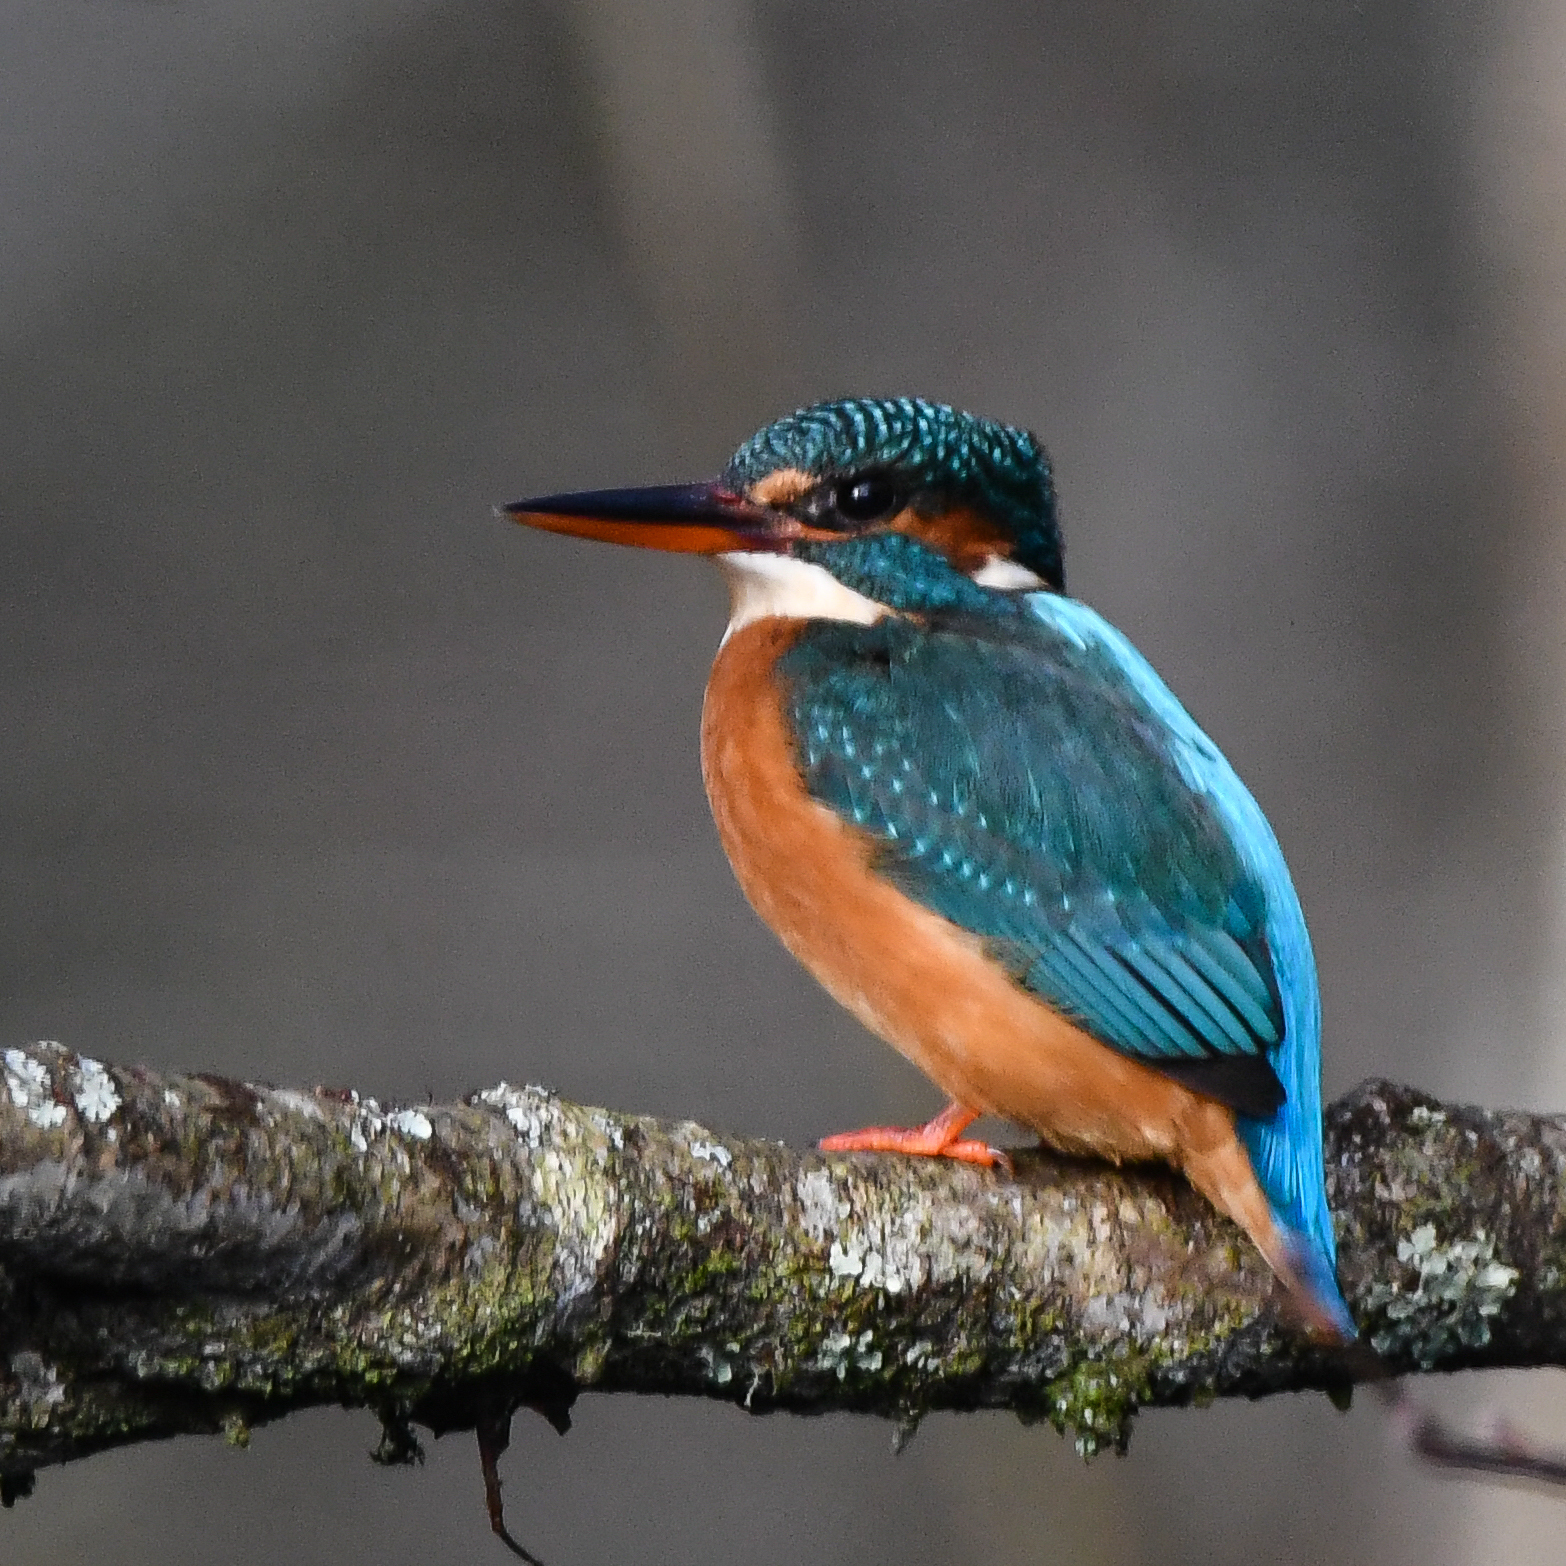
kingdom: Animalia
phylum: Chordata
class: Aves
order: Coraciiformes
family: Alcedinidae
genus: Alcedo
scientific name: Alcedo atthis
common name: Common kingfisher
